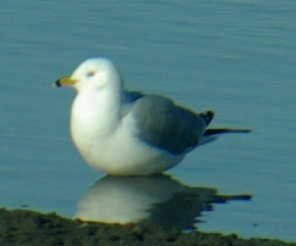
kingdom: Animalia
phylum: Chordata
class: Aves
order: Charadriiformes
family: Laridae
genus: Larus
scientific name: Larus delawarensis
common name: Ring-billed gull
